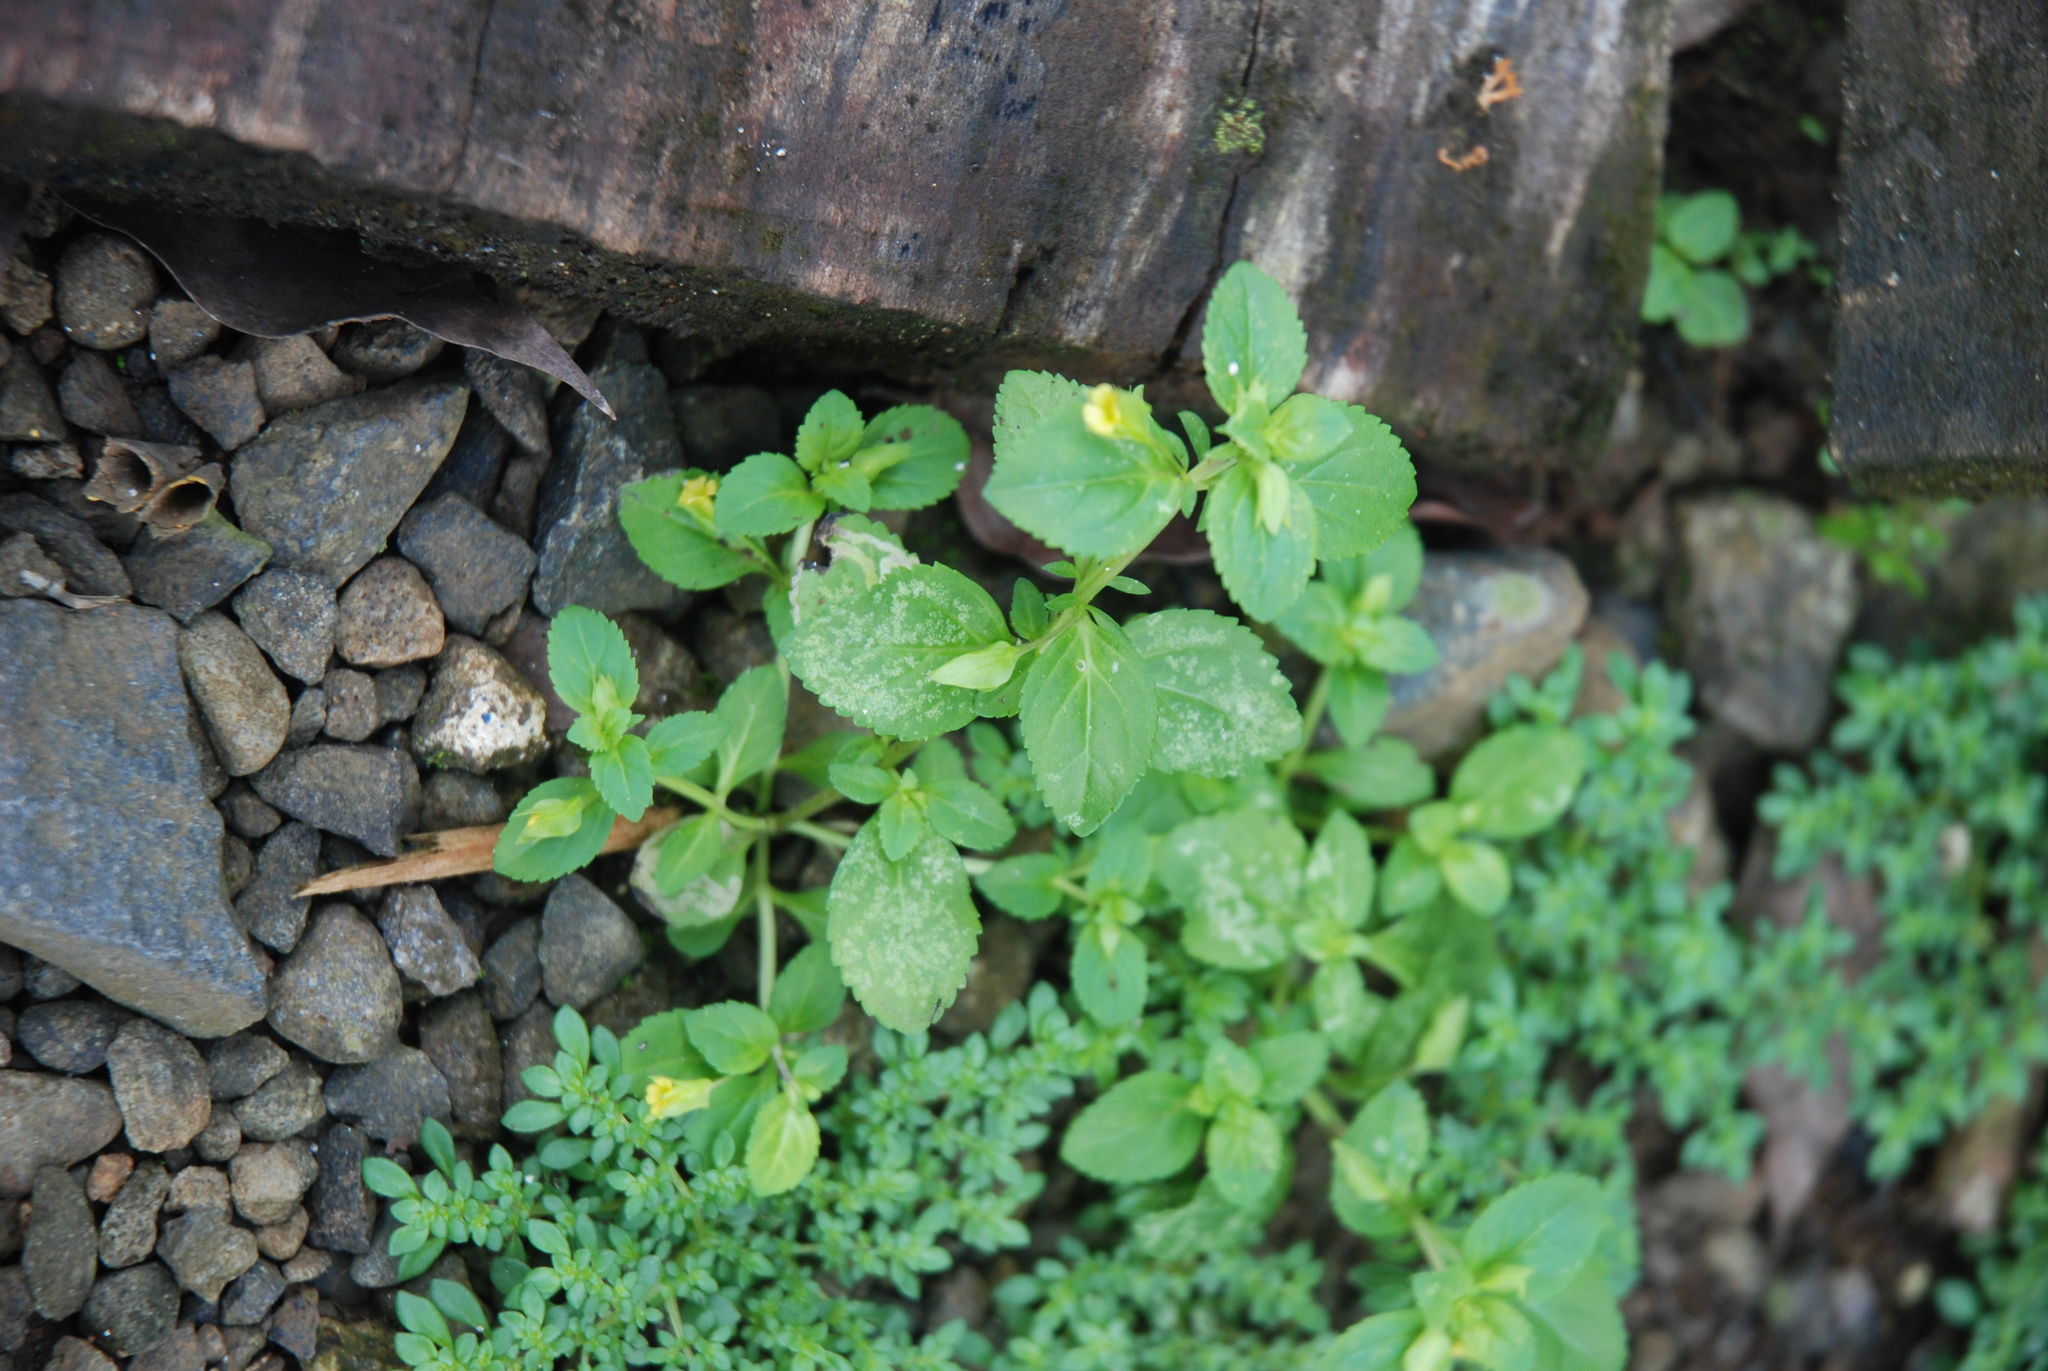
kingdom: Plantae
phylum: Tracheophyta
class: Magnoliopsida
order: Lamiales
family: Plantaginaceae
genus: Mecardonia
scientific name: Mecardonia procumbens
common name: Baby jump-up
